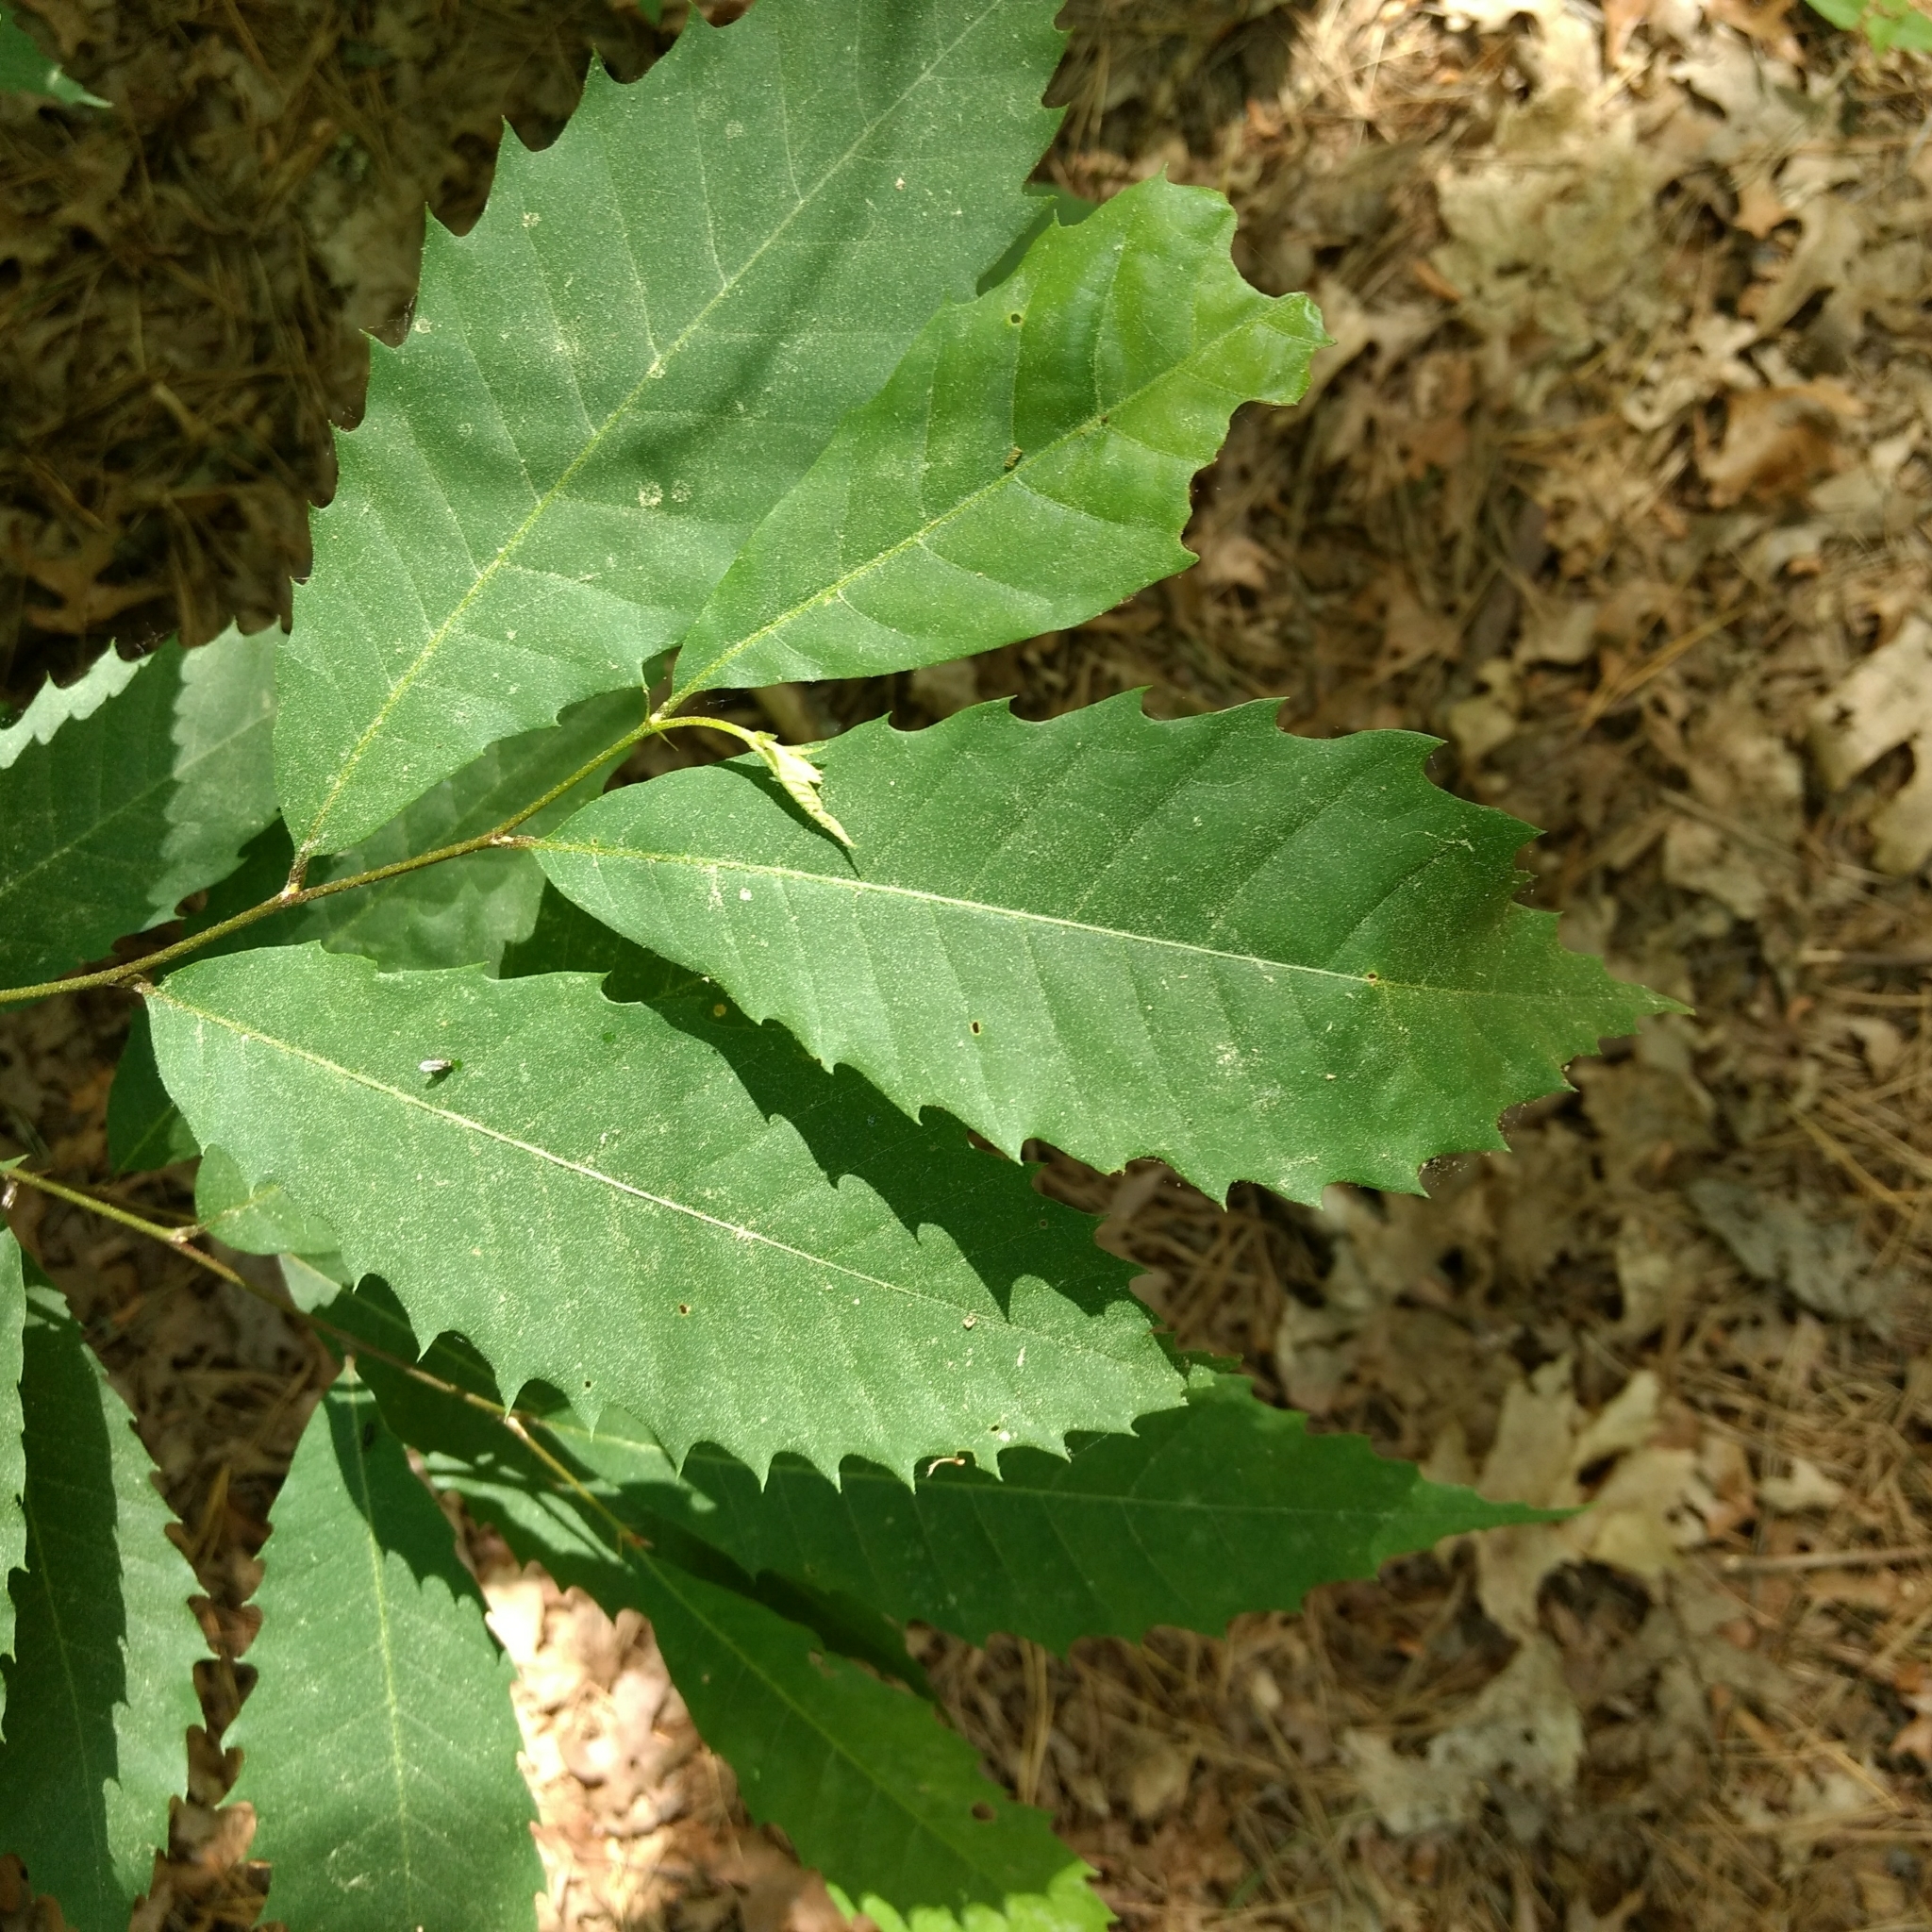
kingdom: Plantae
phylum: Tracheophyta
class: Magnoliopsida
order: Fagales
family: Fagaceae
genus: Castanea
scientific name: Castanea dentata
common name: American chestnut
